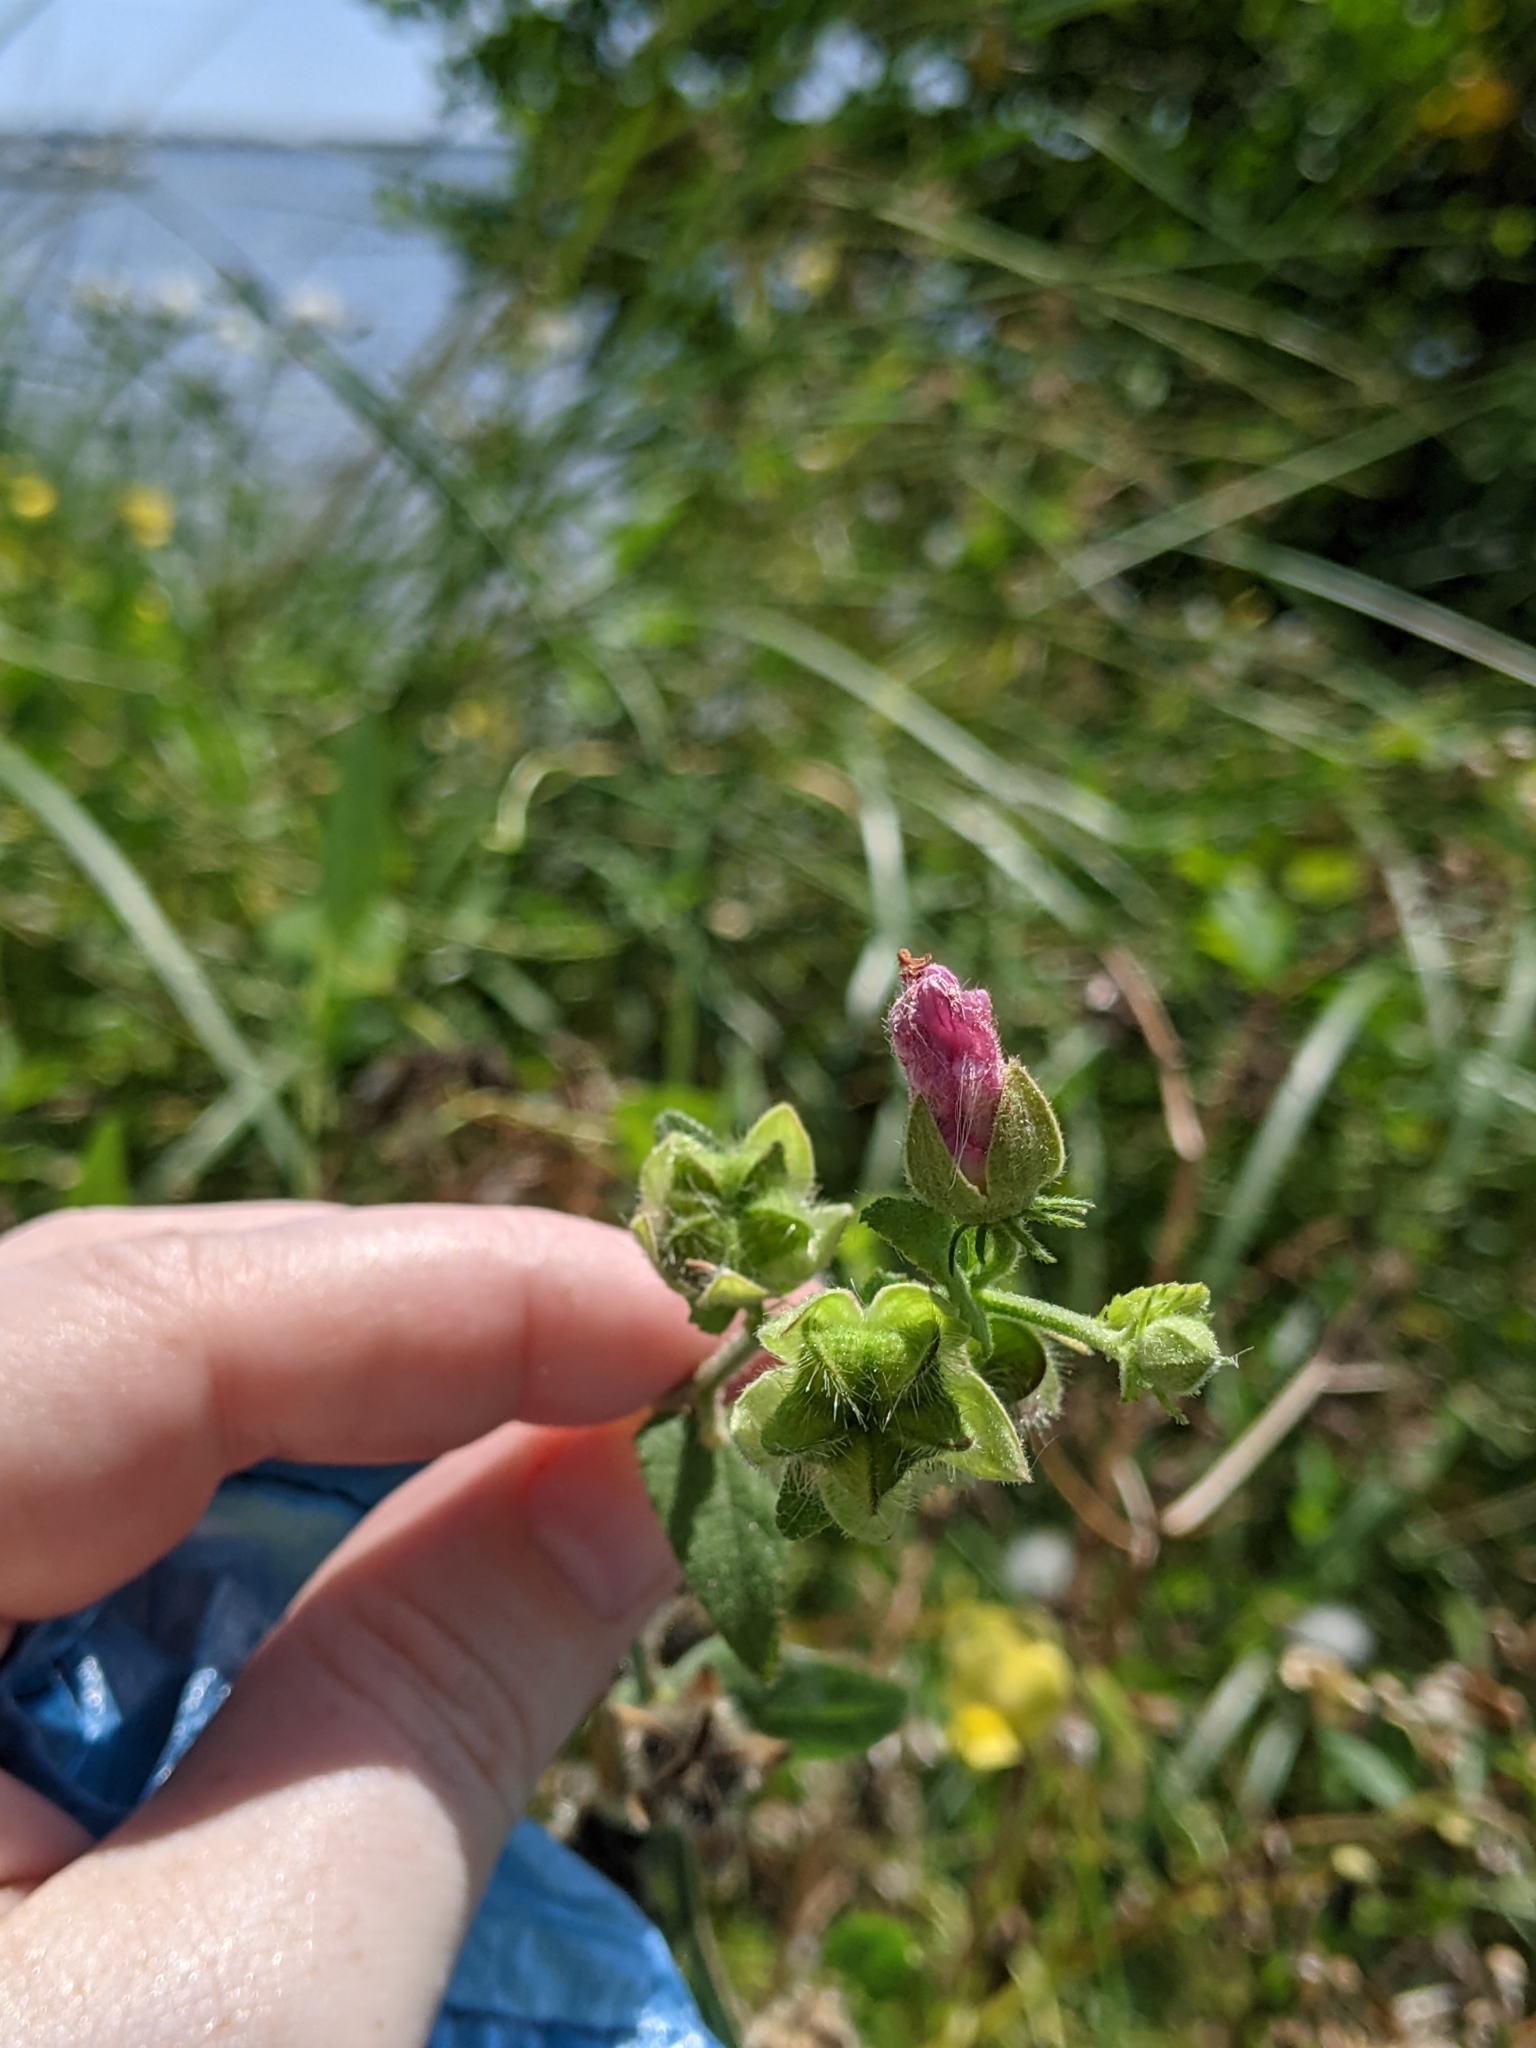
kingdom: Plantae
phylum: Tracheophyta
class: Magnoliopsida
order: Malvales
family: Malvaceae
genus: Kosteletzkya
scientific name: Kosteletzkya pentacarpos
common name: Virginia saltmarsh mallow
